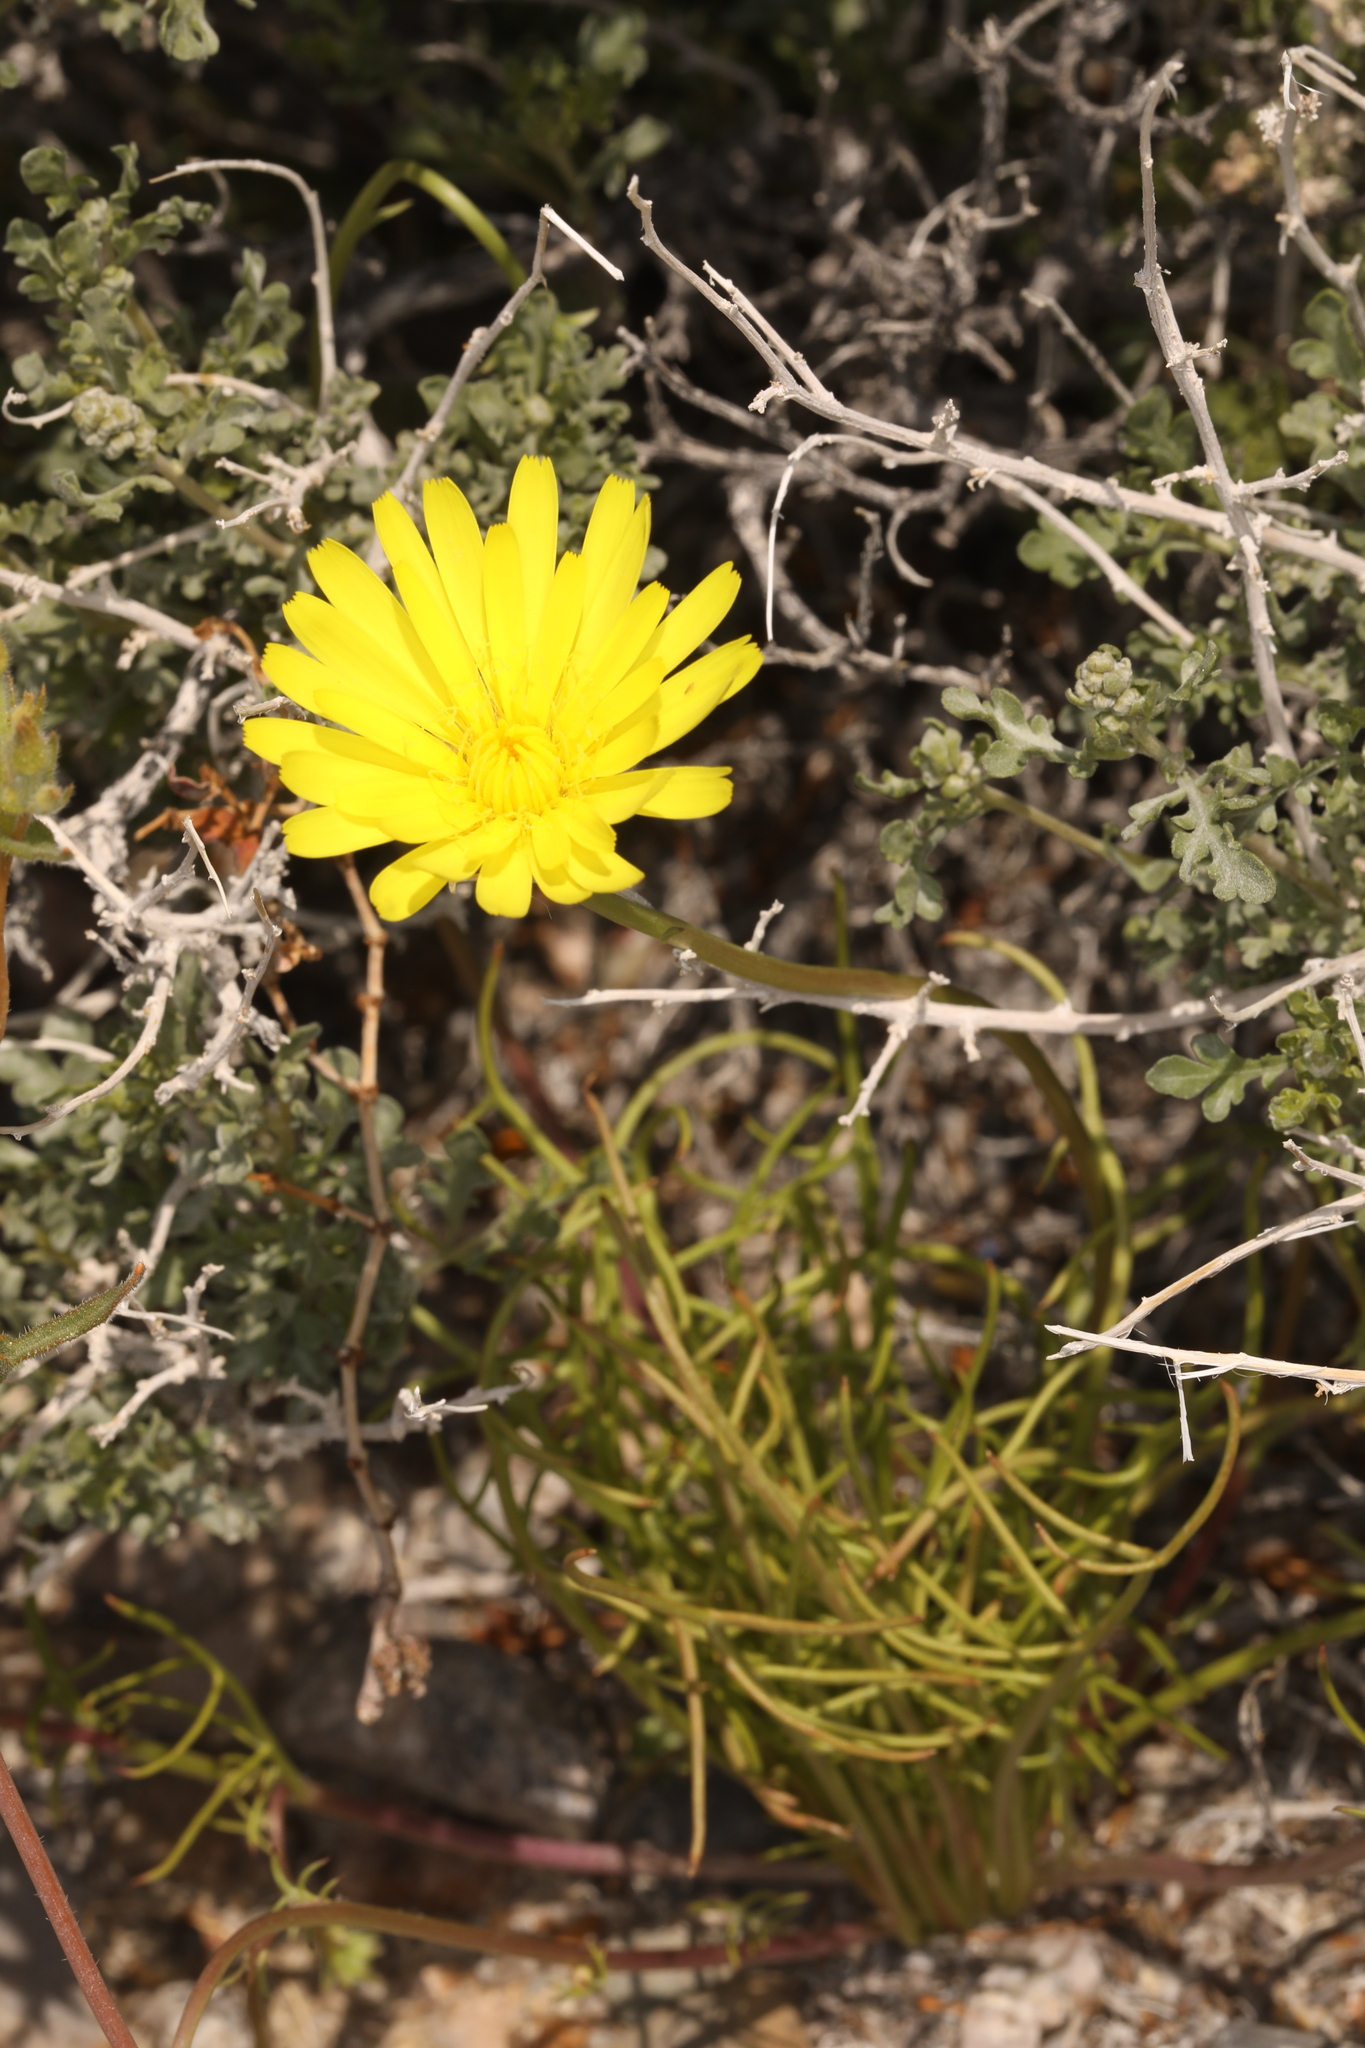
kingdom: Plantae
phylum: Tracheophyta
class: Magnoliopsida
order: Asterales
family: Asteraceae
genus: Malacothrix
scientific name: Malacothrix glabrata
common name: Smooth desert-dandelion
